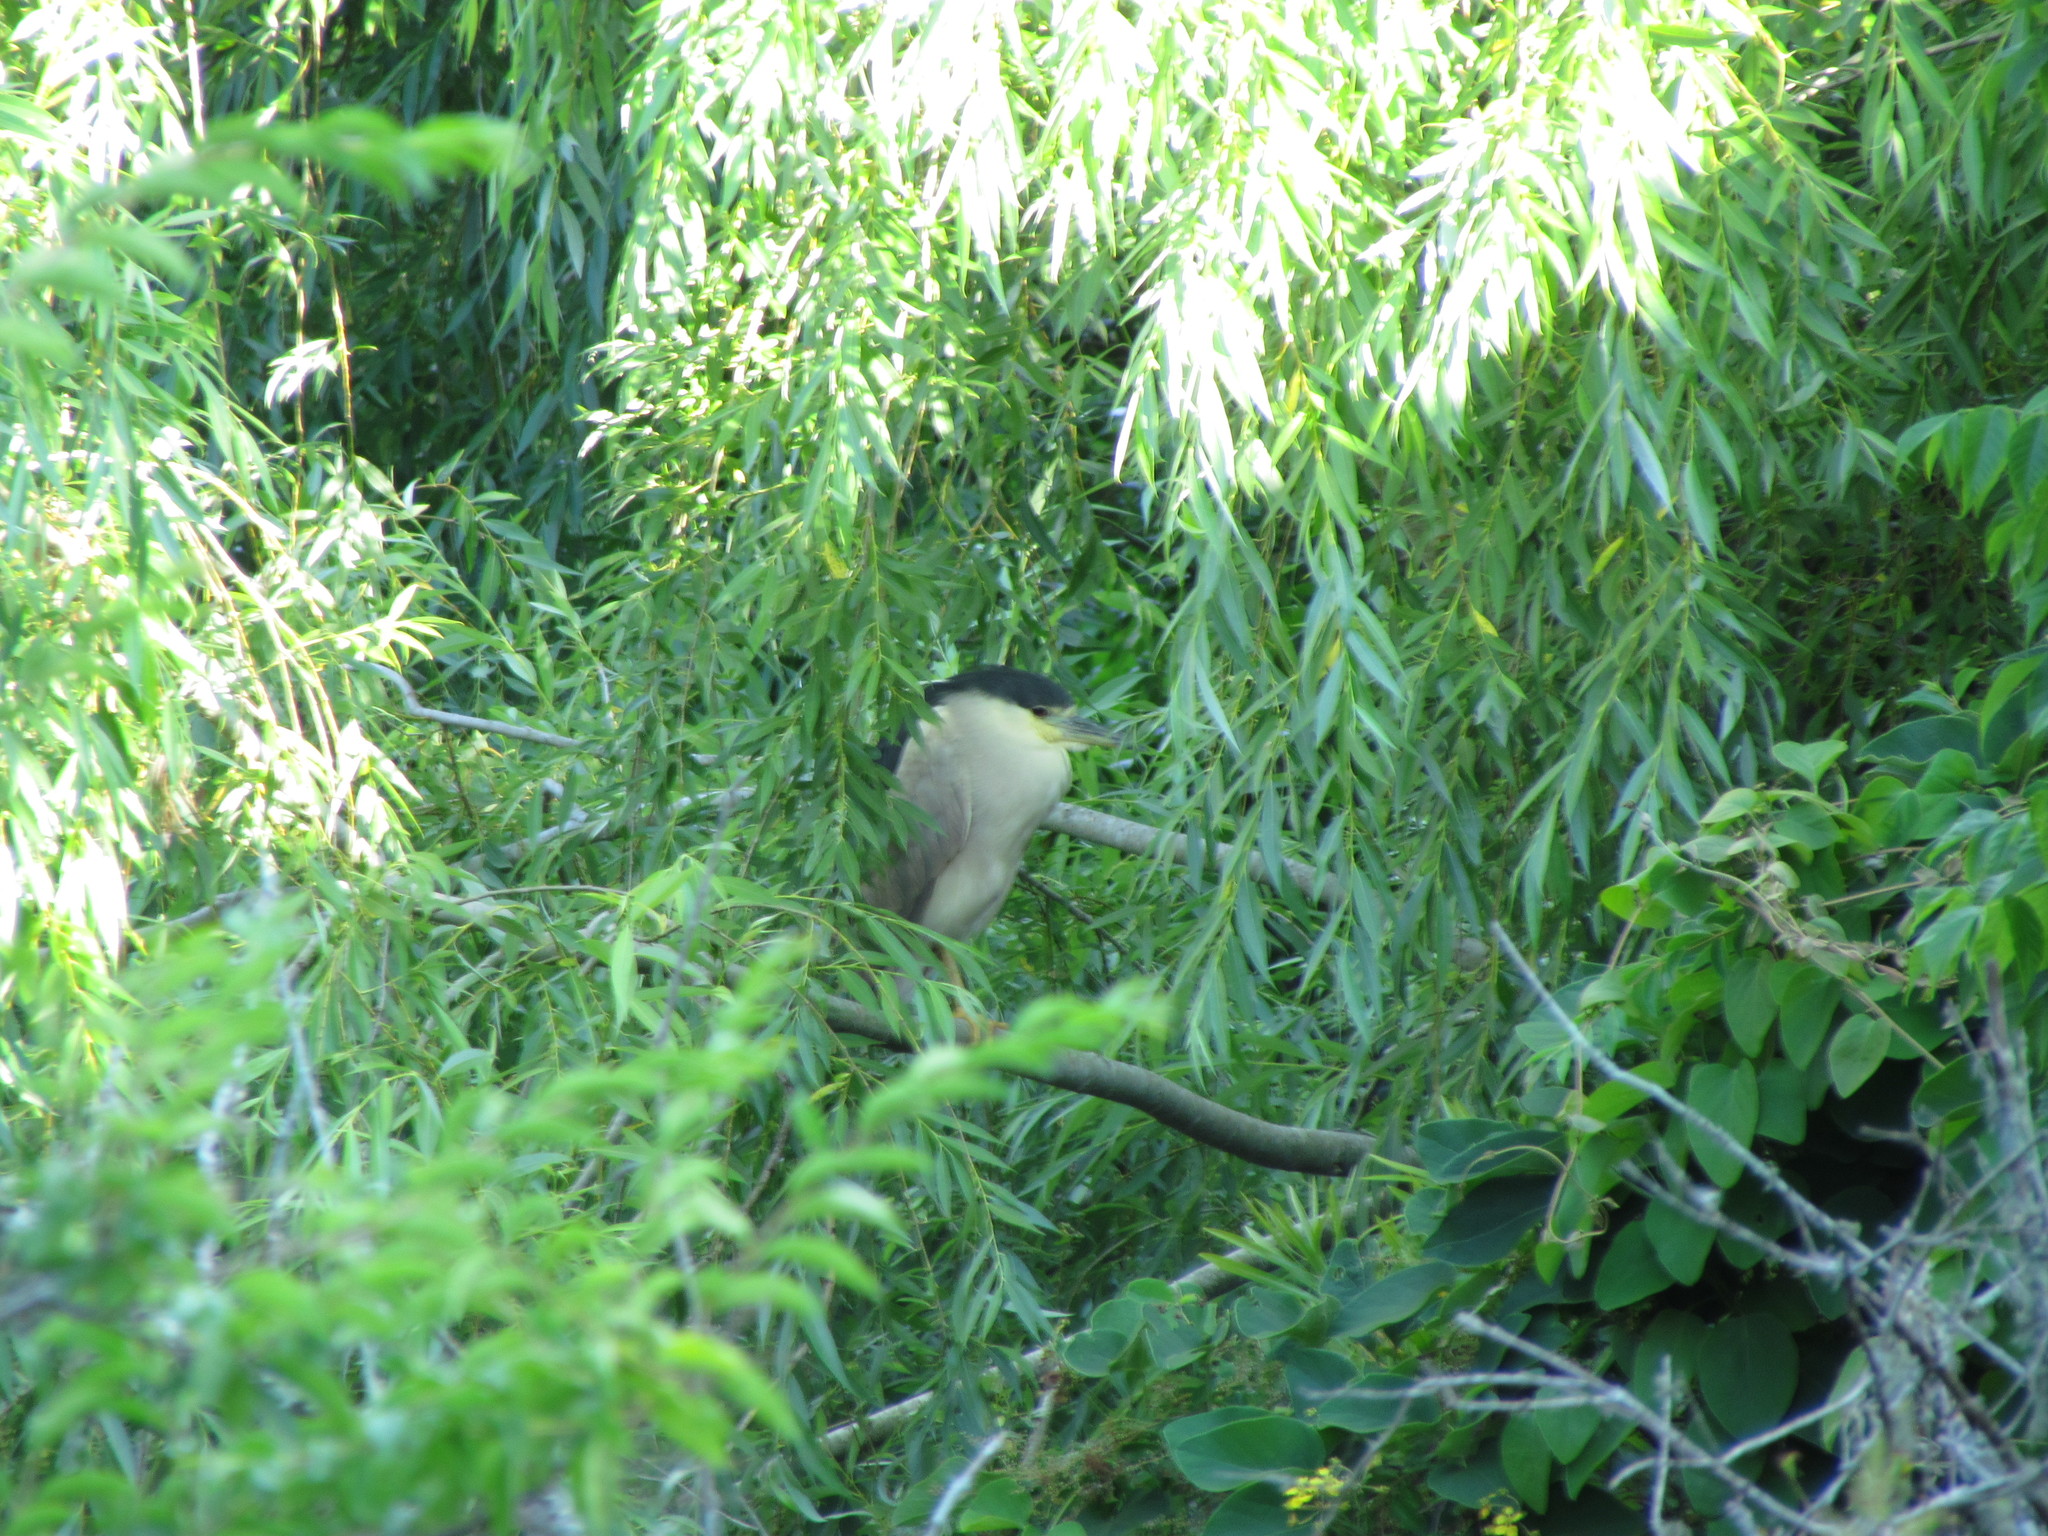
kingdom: Animalia
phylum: Chordata
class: Aves
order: Pelecaniformes
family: Ardeidae
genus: Nycticorax
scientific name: Nycticorax nycticorax
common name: Black-crowned night heron
